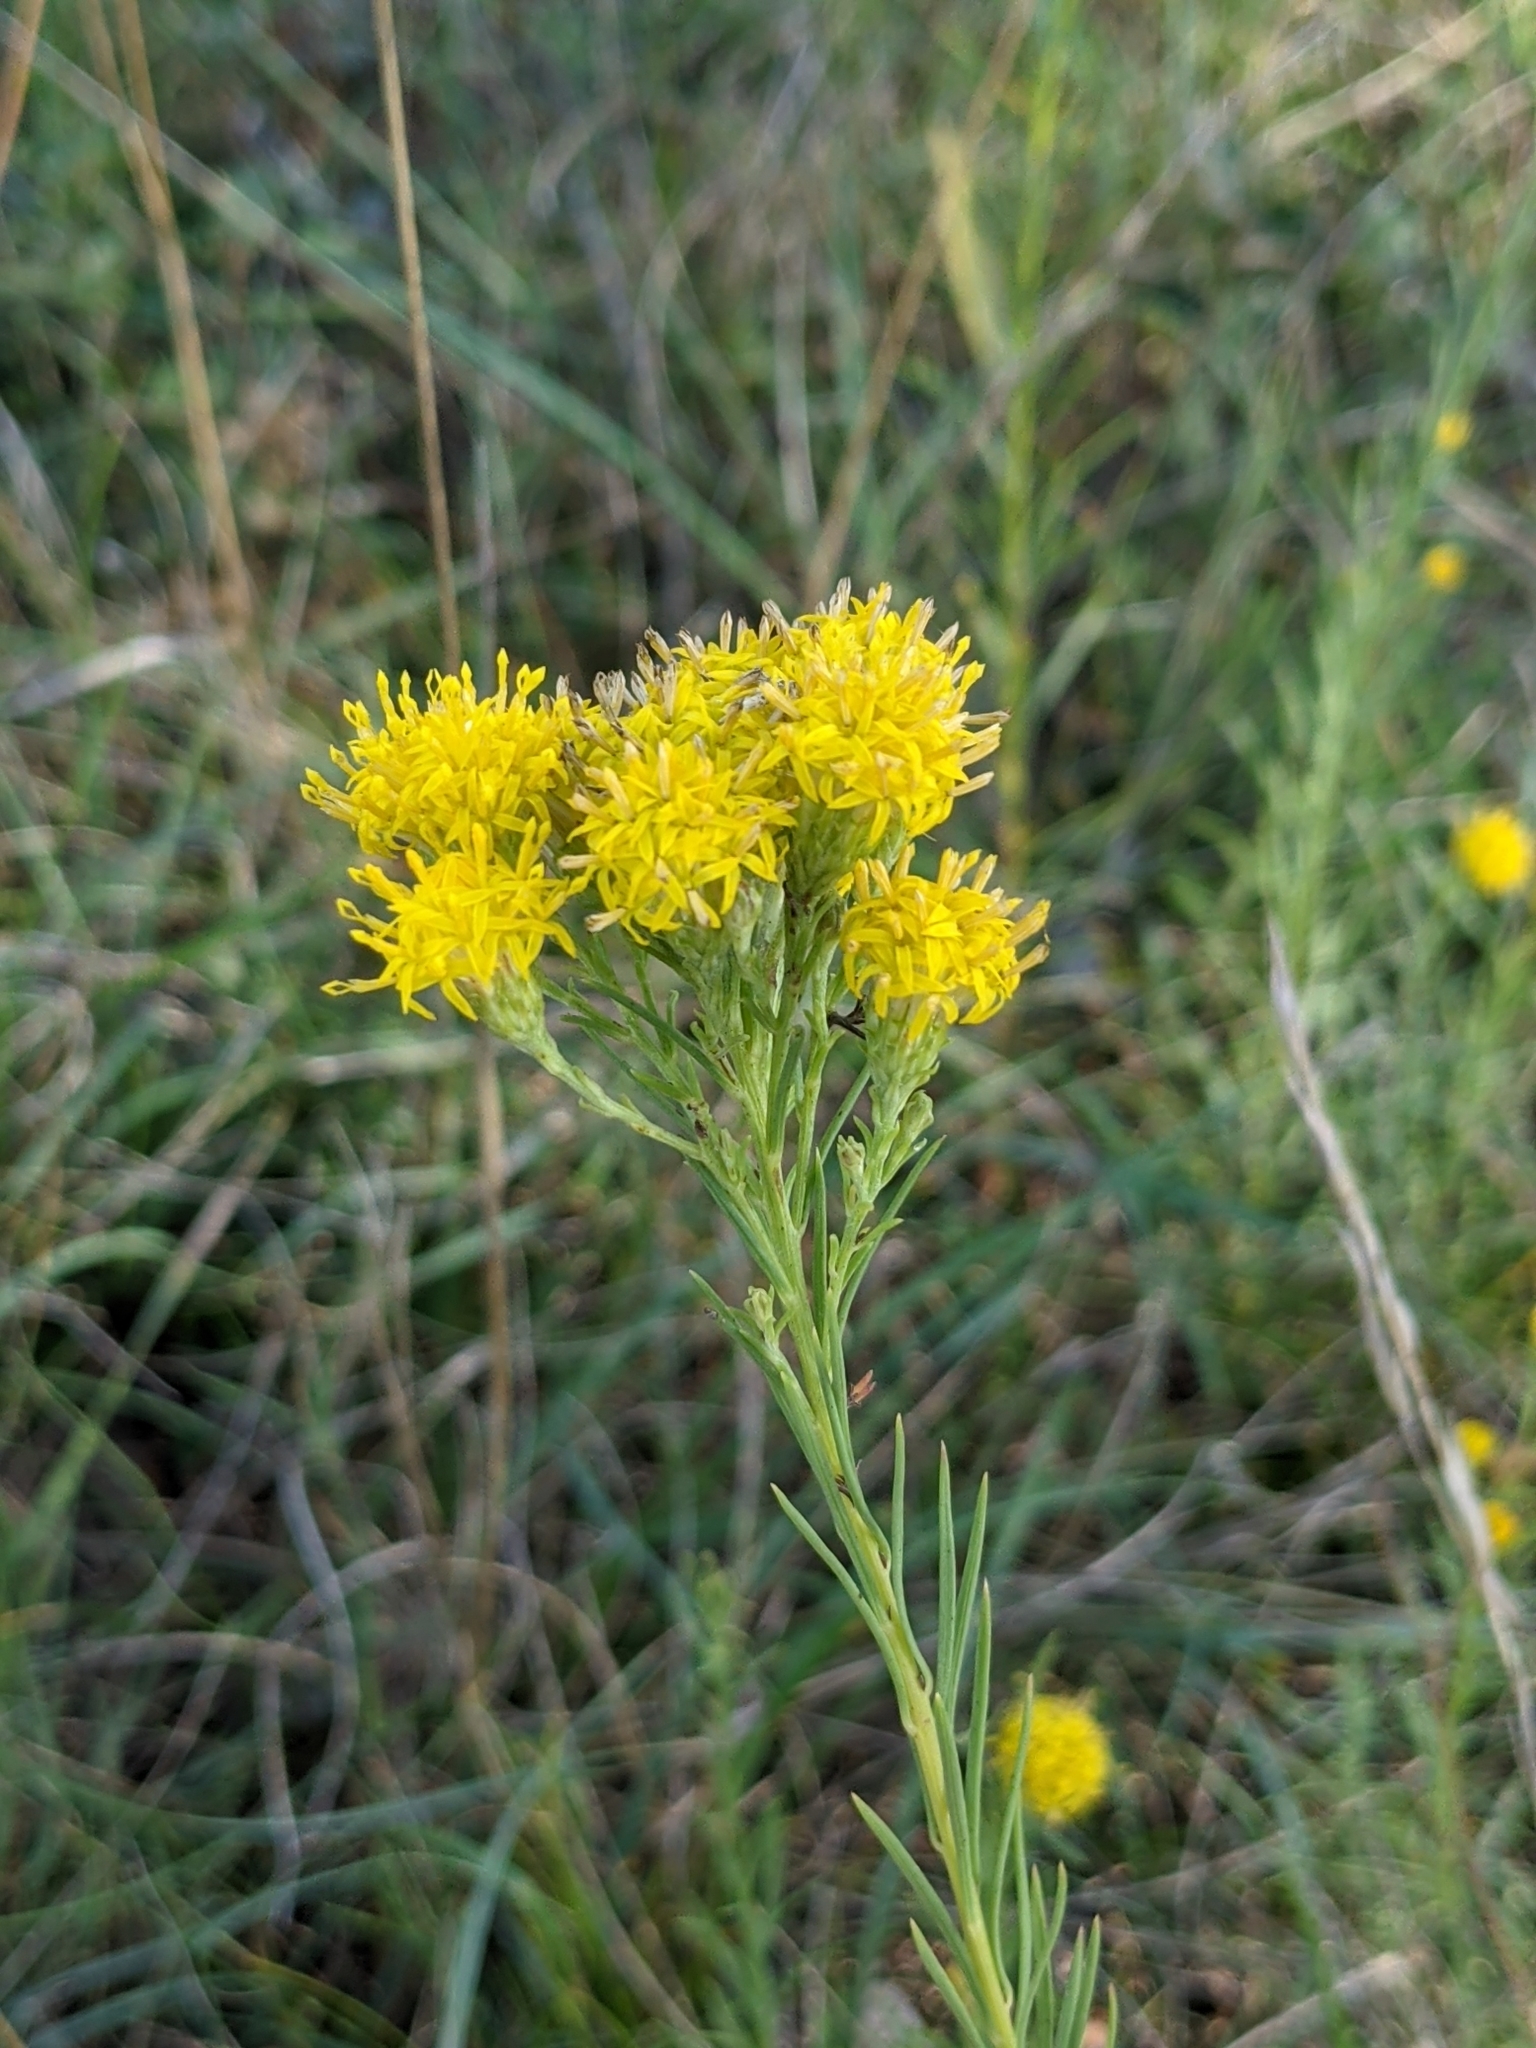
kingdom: Plantae
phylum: Tracheophyta
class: Magnoliopsida
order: Asterales
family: Asteraceae
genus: Galatella
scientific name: Galatella linosyris
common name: Goldilocks aster
